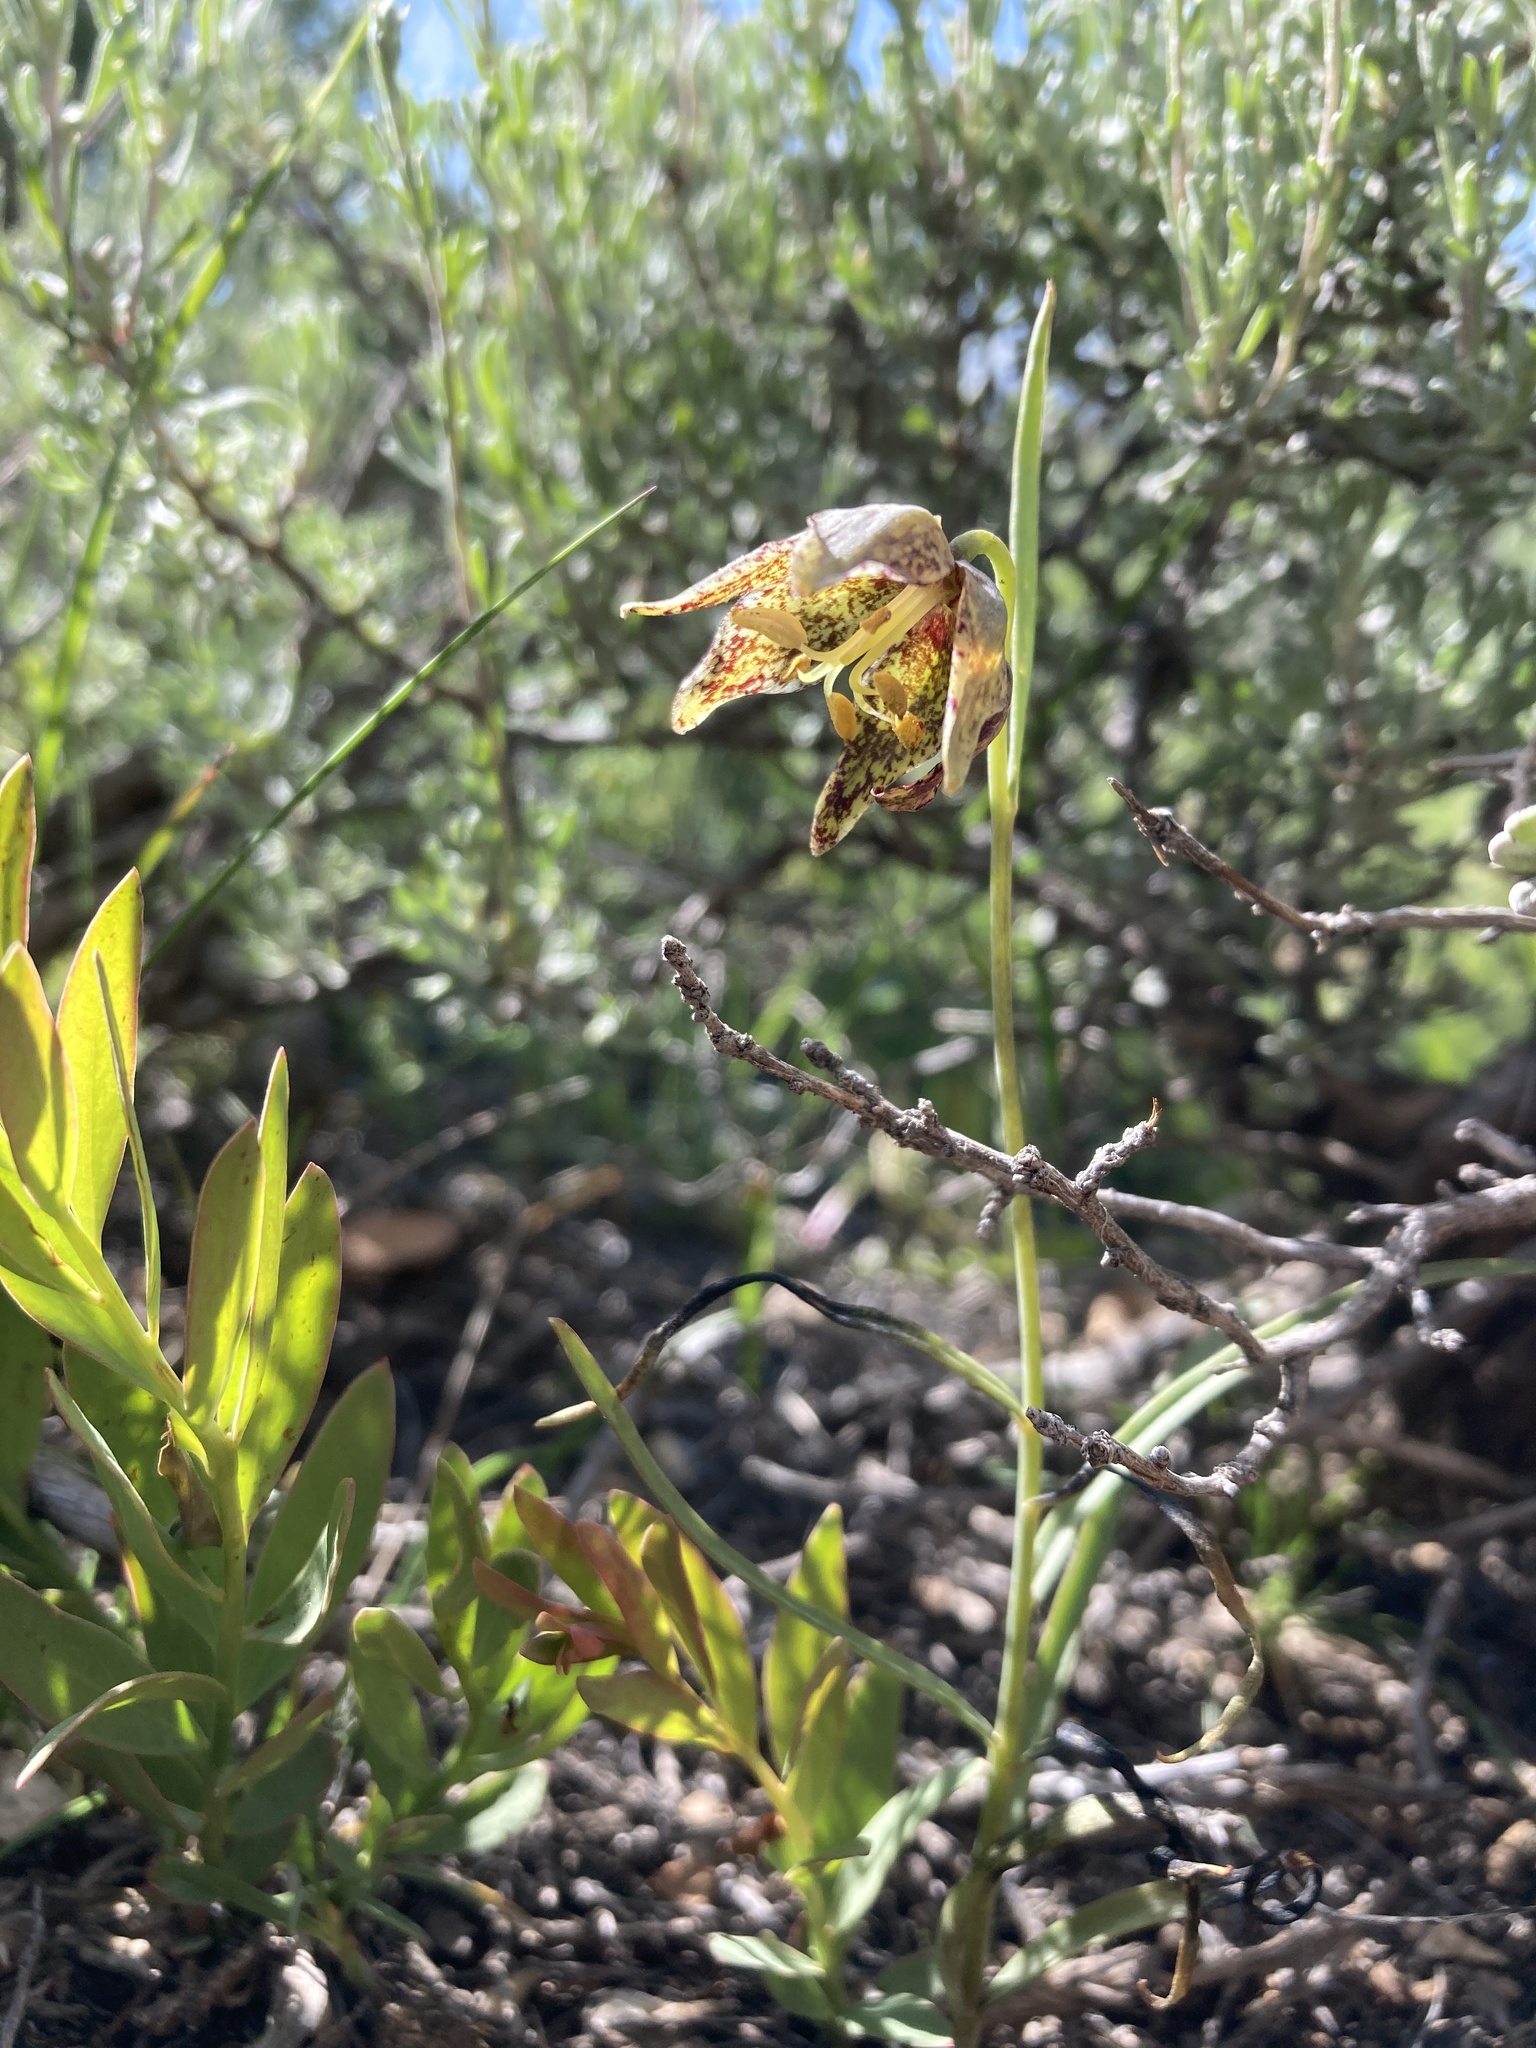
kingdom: Plantae
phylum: Tracheophyta
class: Liliopsida
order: Liliales
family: Liliaceae
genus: Fritillaria
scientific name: Fritillaria atropurpurea
